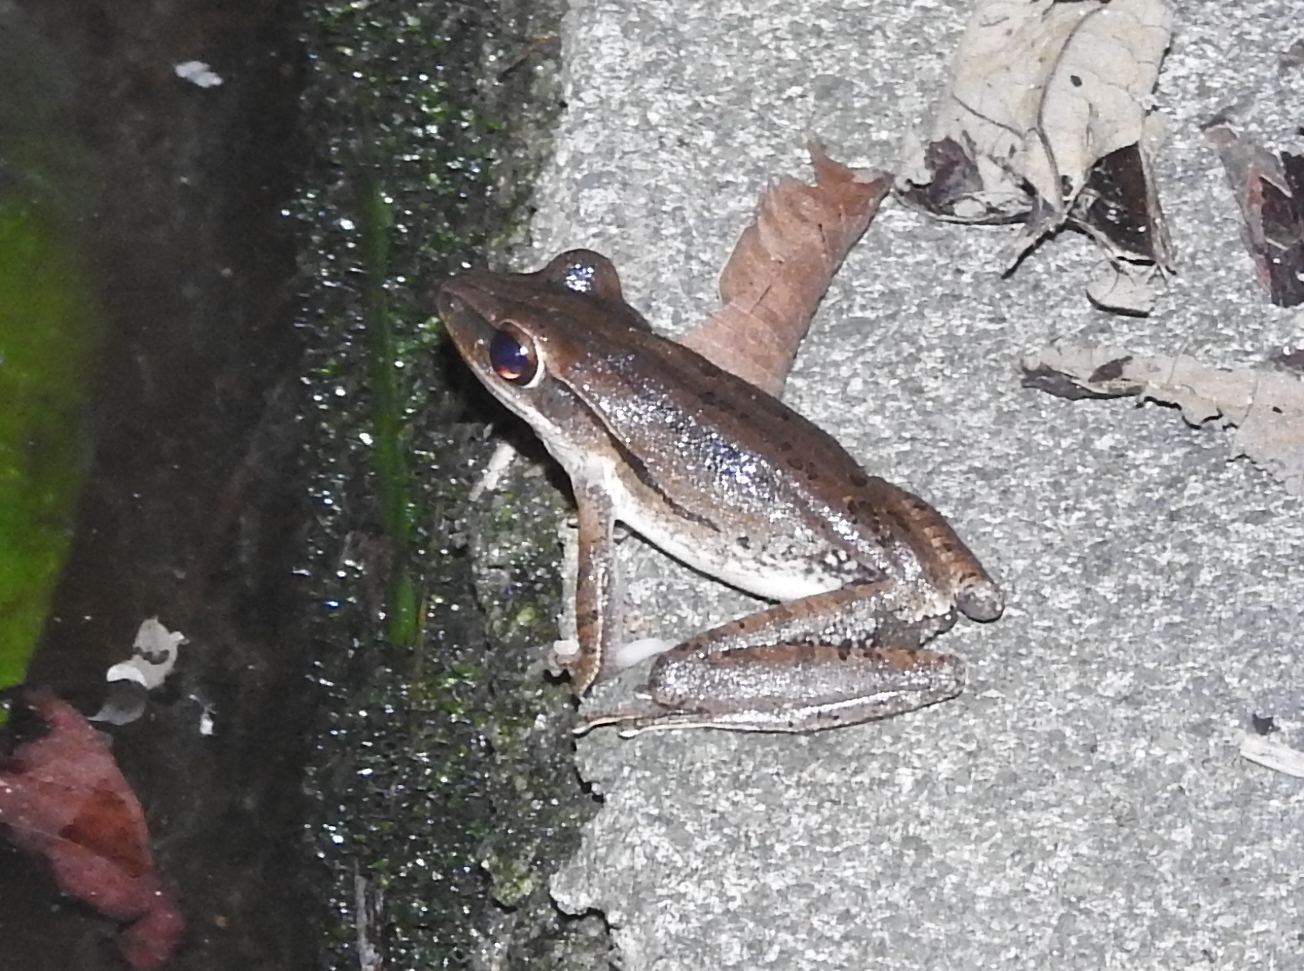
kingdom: Animalia
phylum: Chordata
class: Amphibia
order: Anura
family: Rhacophoridae
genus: Polypedates
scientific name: Polypedates leucomystax
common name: Common tree frog/four-lined tree frog
